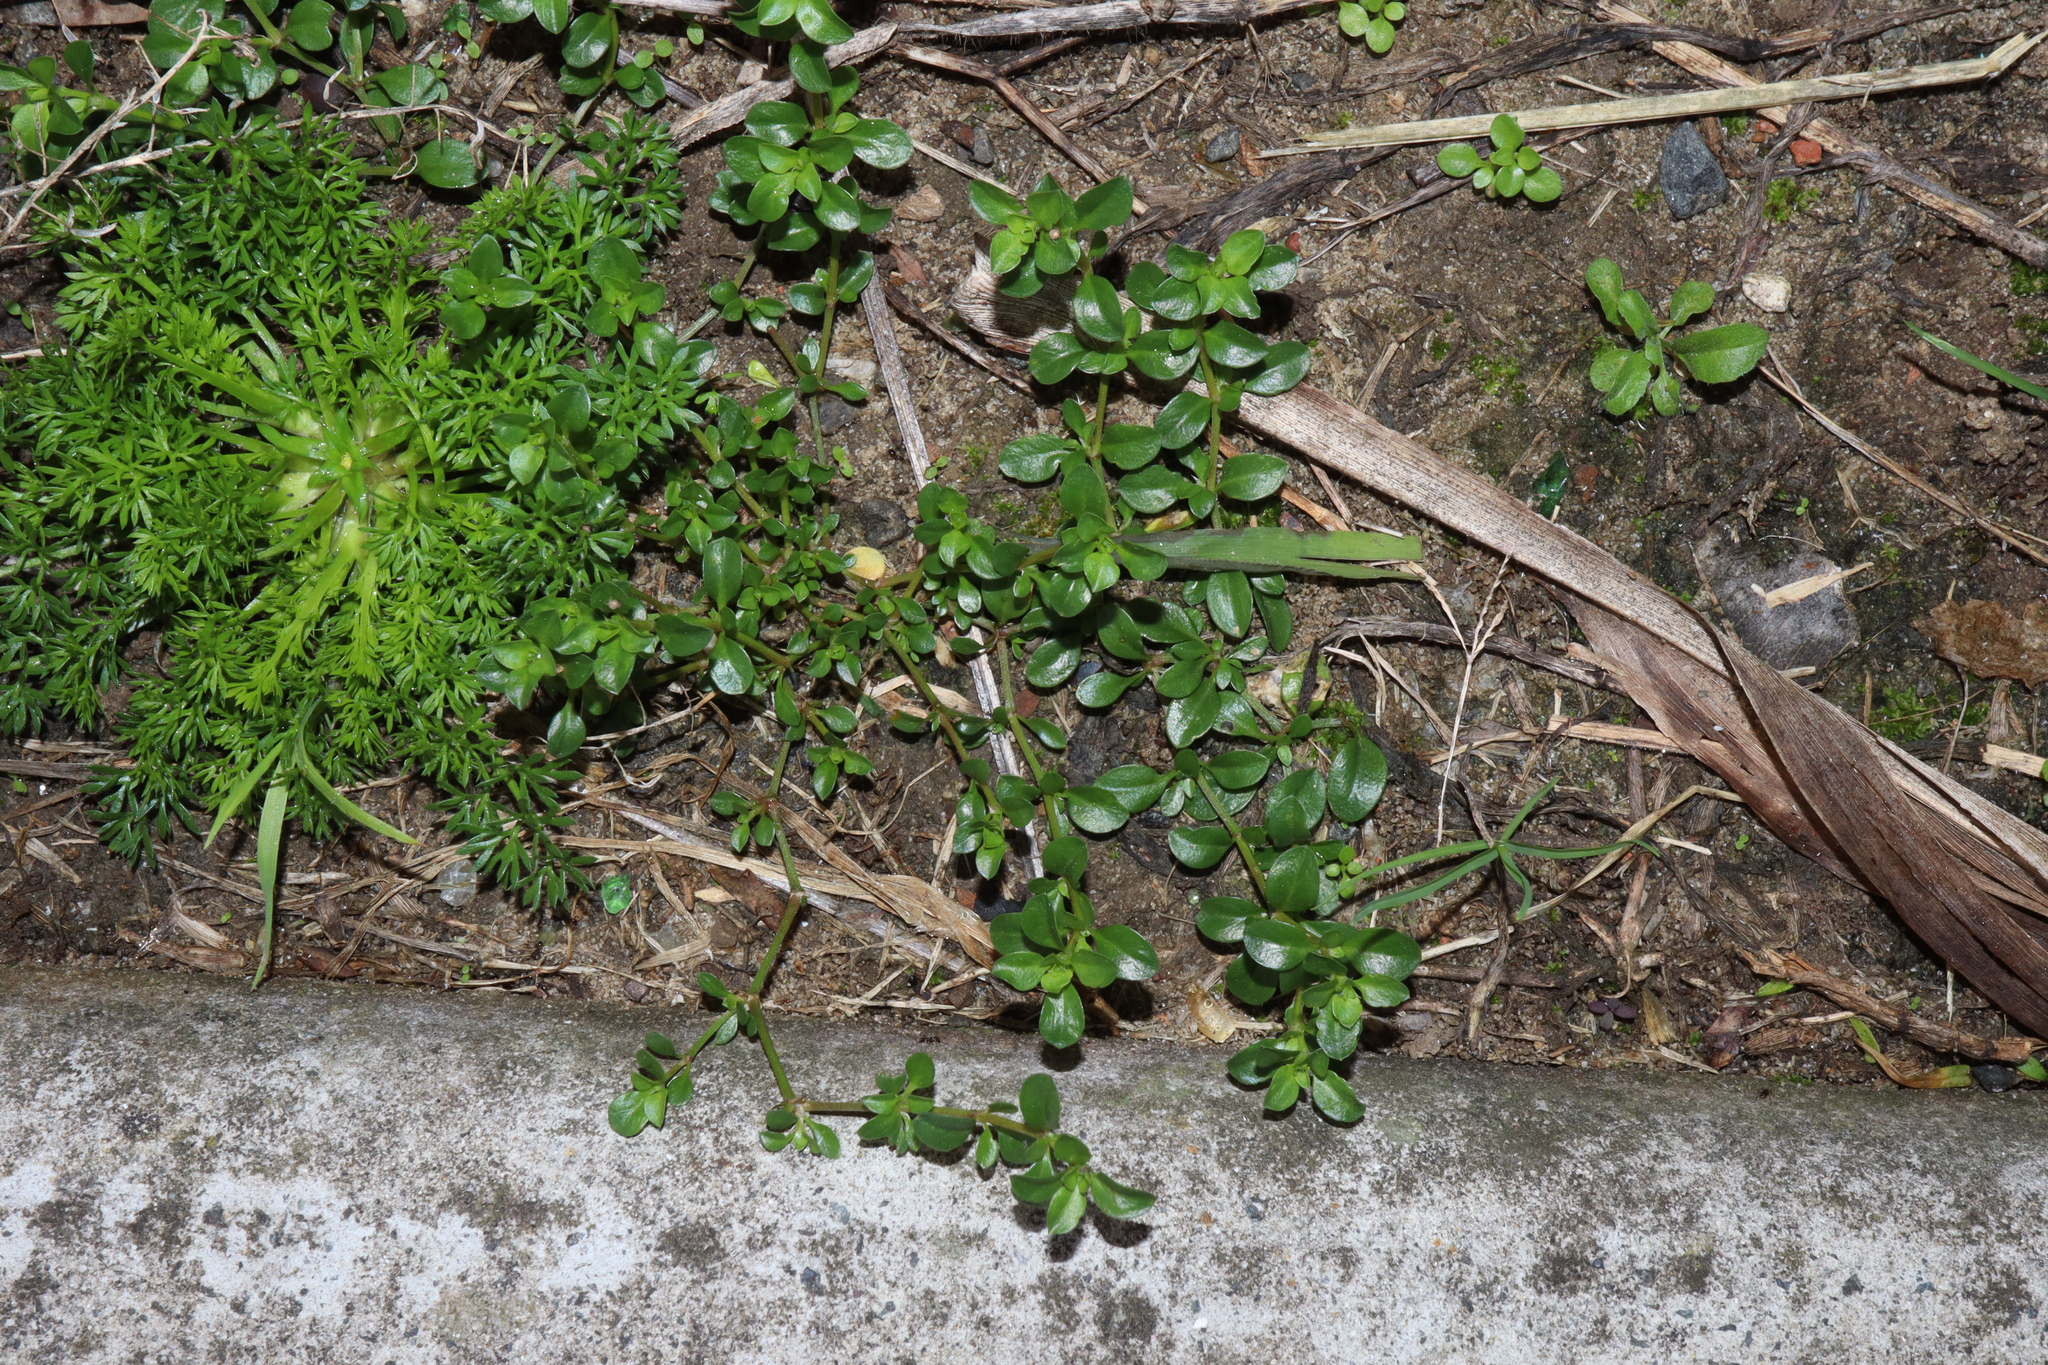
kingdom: Plantae
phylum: Tracheophyta
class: Magnoliopsida
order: Caryophyllales
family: Caryophyllaceae
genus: Polycarpon
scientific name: Polycarpon tetraphyllum
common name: Four-leaved all-seed
